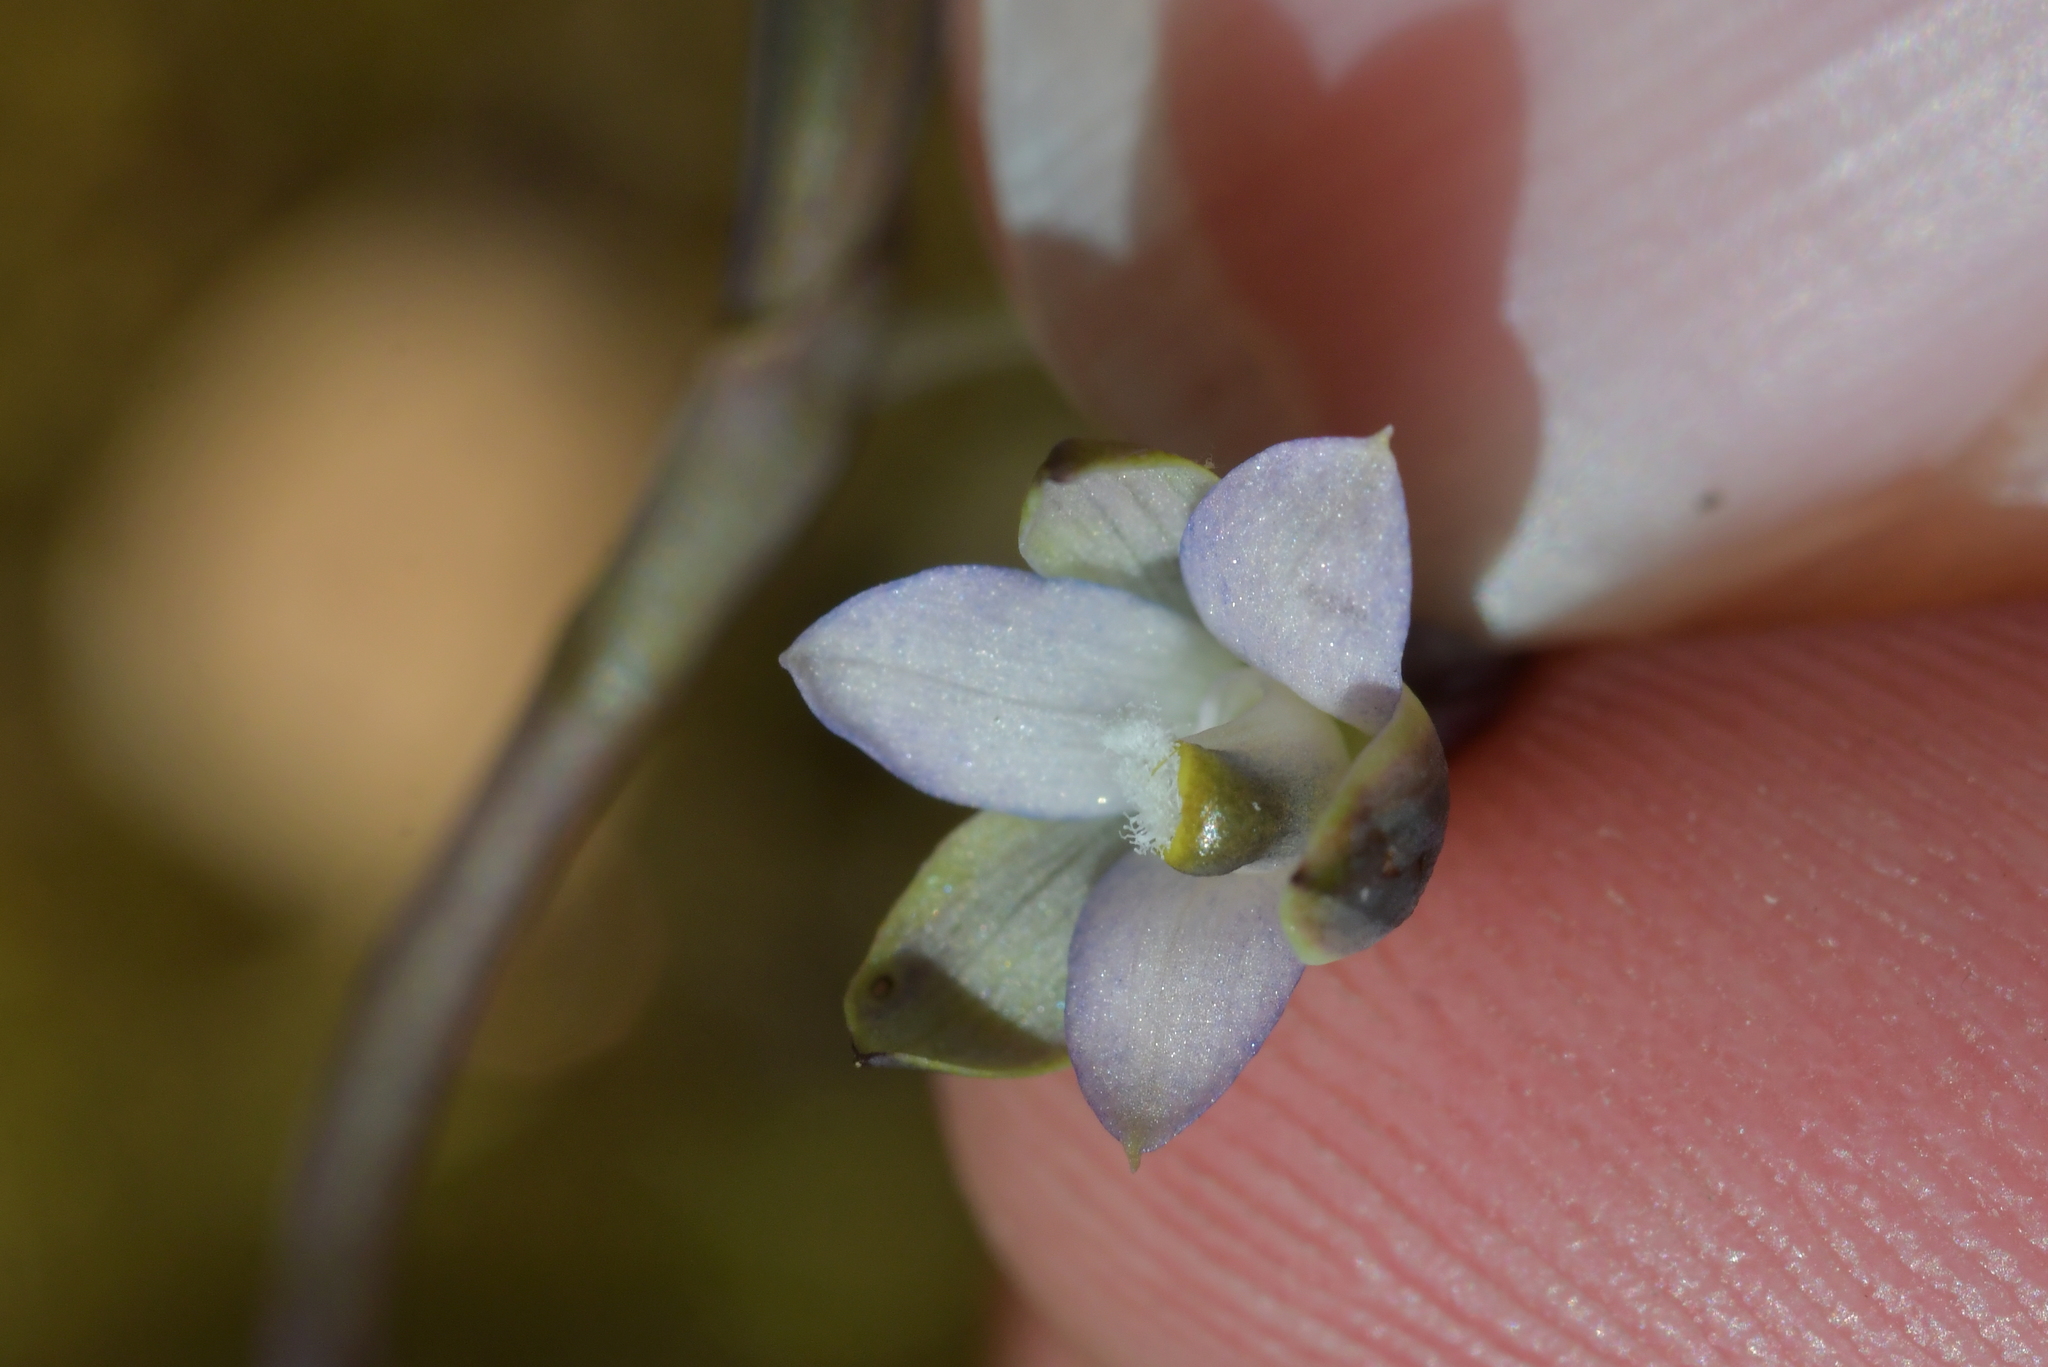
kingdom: Plantae
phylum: Tracheophyta
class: Liliopsida
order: Asparagales
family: Orchidaceae
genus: Thelymitra
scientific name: Thelymitra purpureofusca
